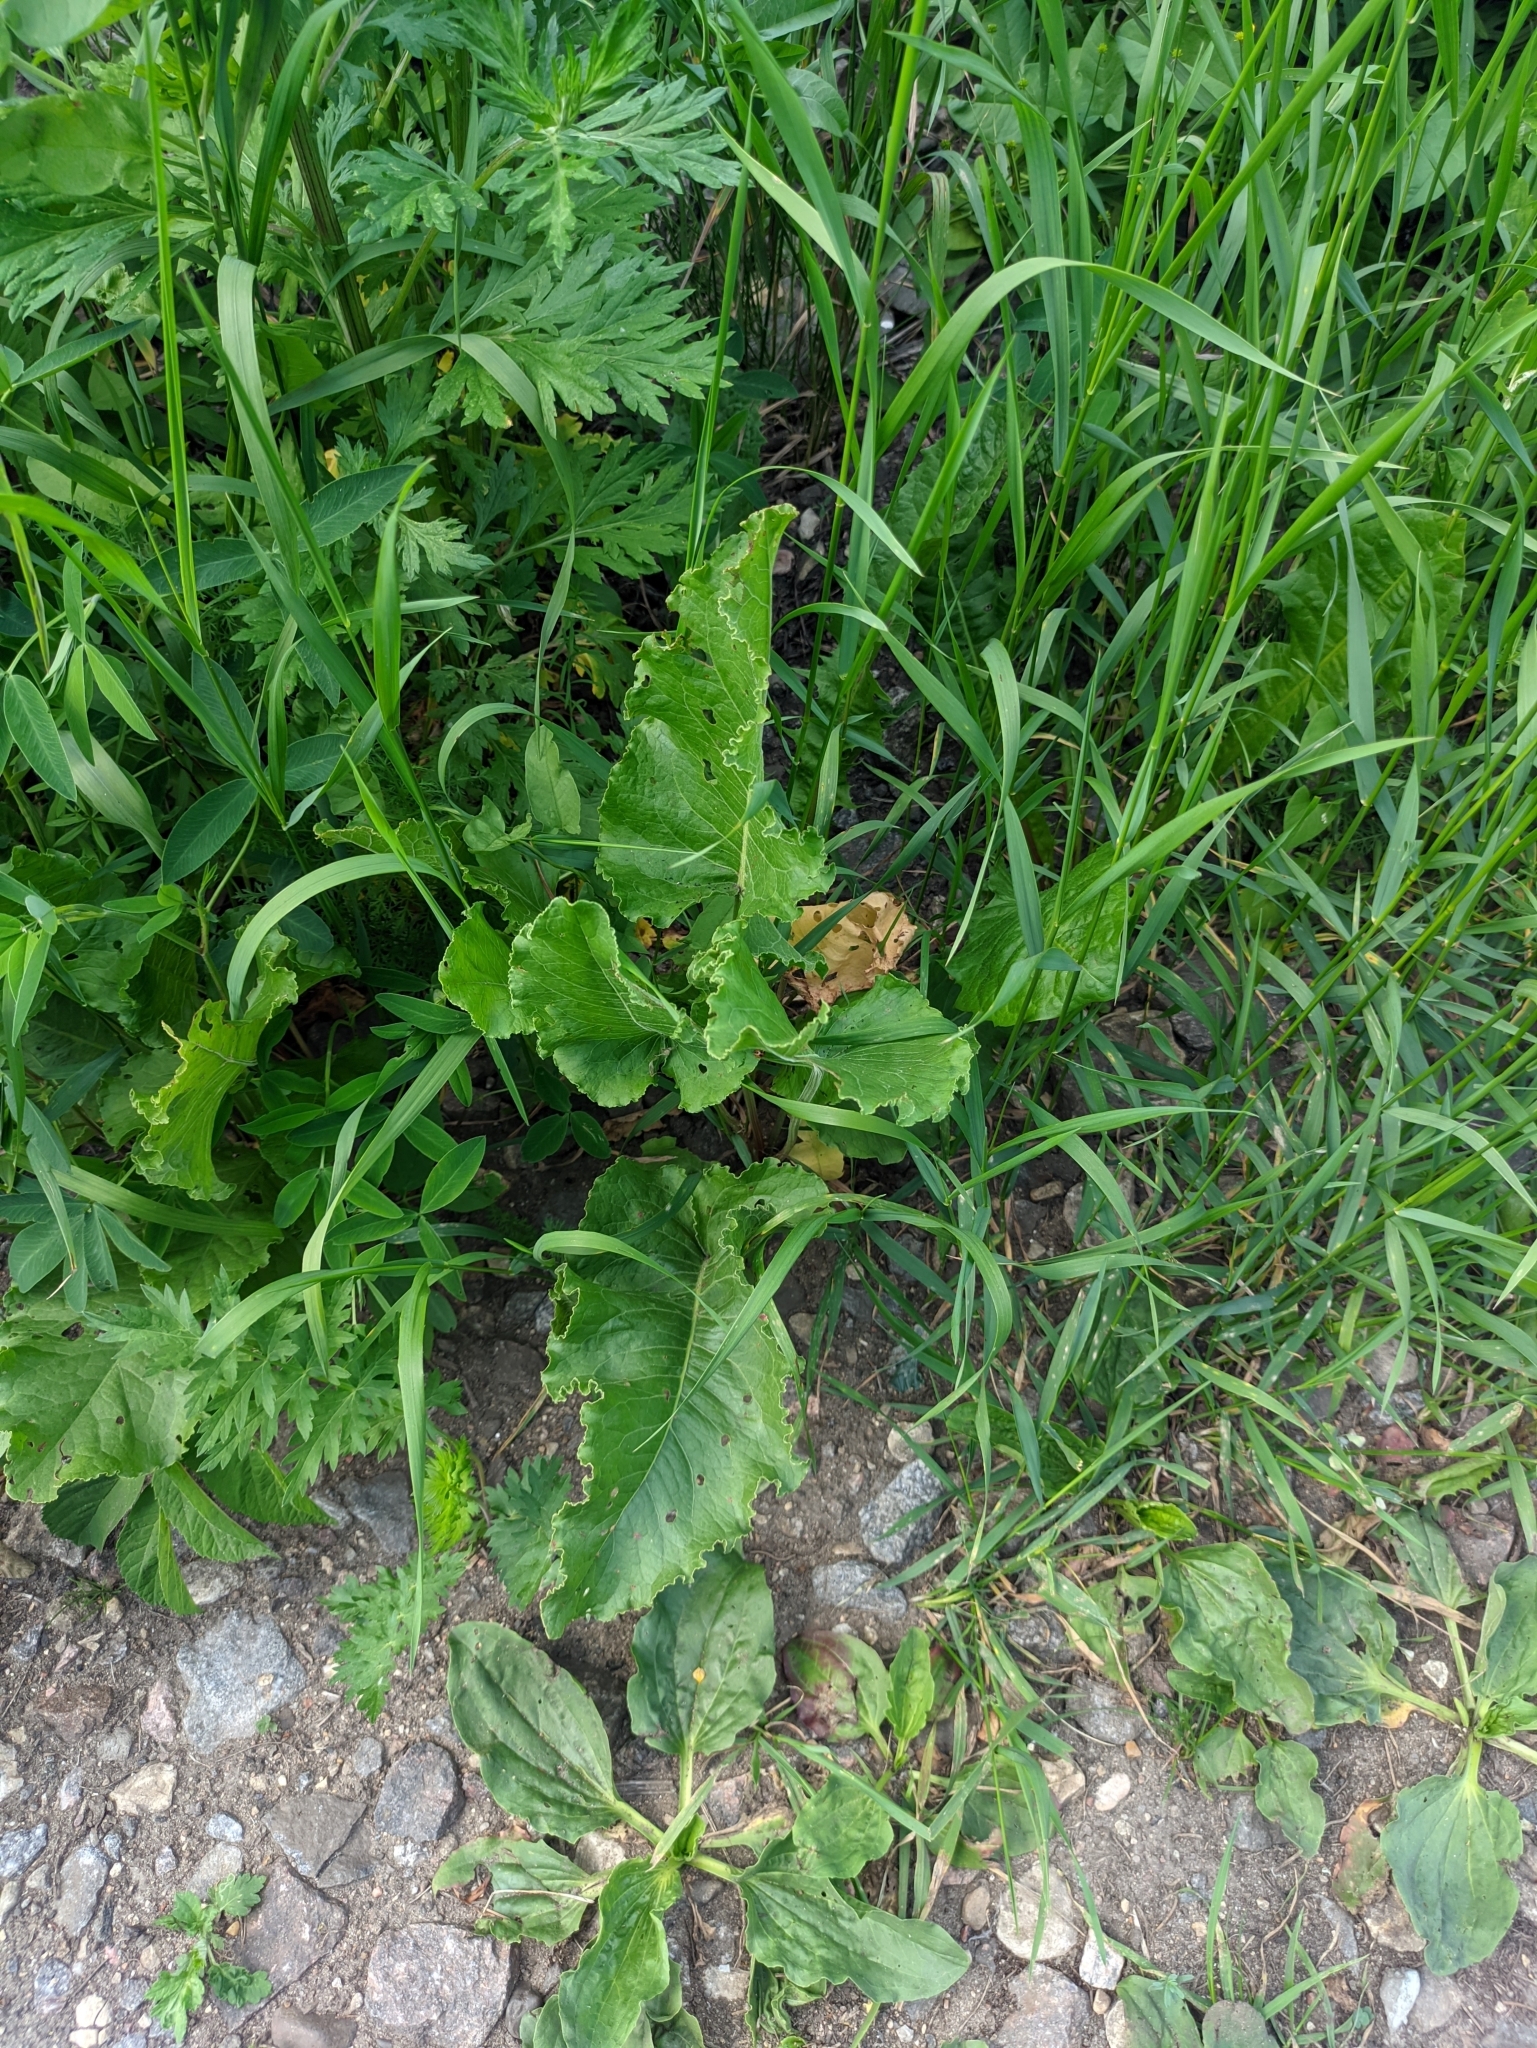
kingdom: Plantae
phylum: Tracheophyta
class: Magnoliopsida
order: Caryophyllales
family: Polygonaceae
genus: Rumex
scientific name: Rumex confertus
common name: Russian dock
